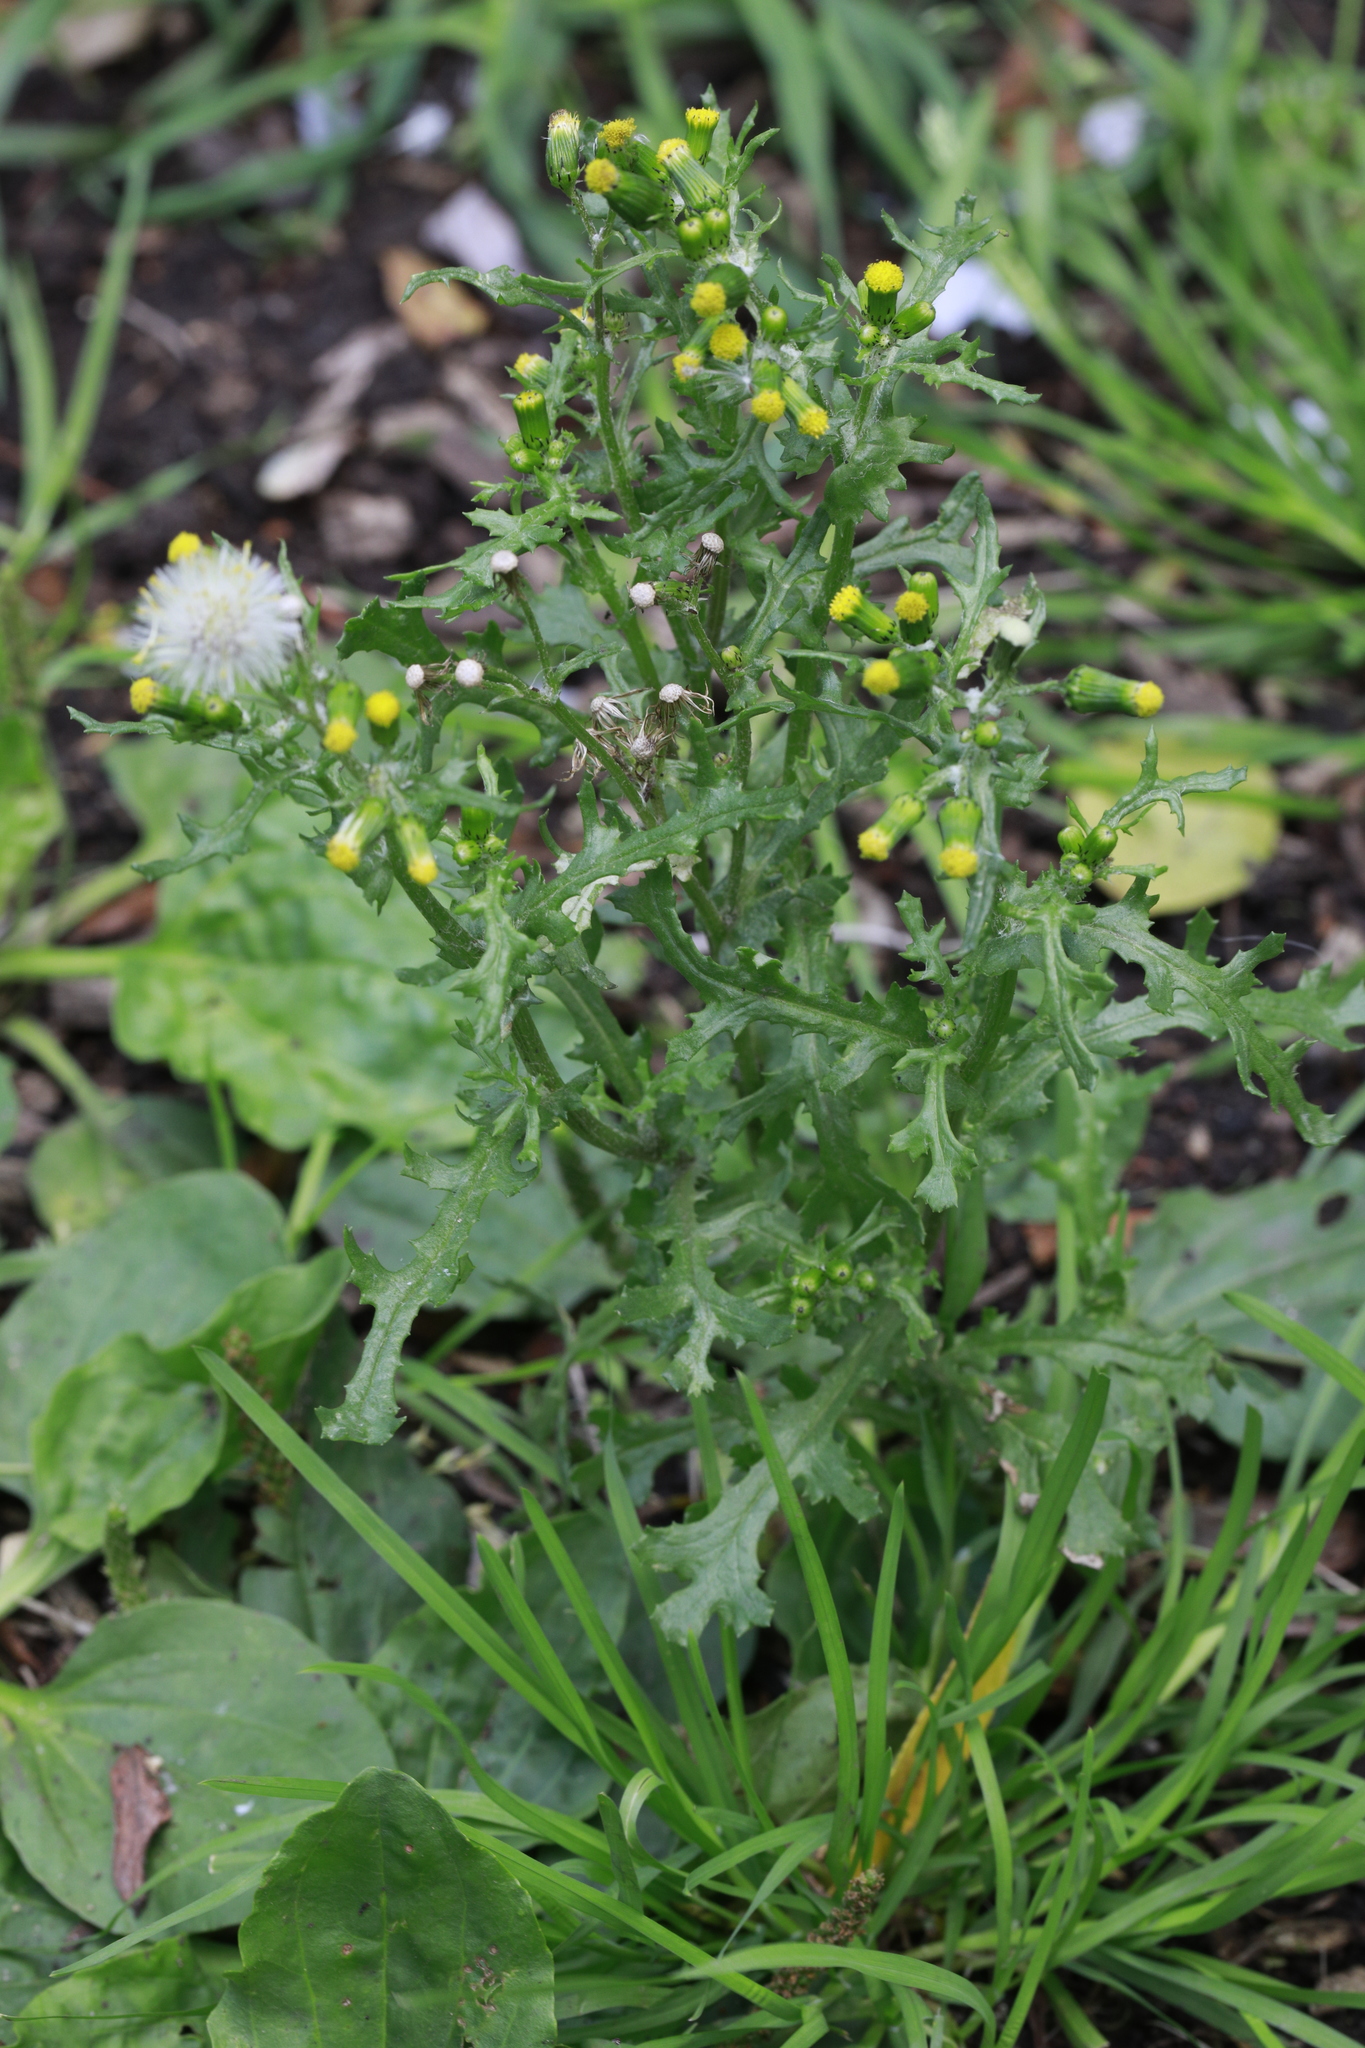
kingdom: Plantae
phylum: Tracheophyta
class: Magnoliopsida
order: Asterales
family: Asteraceae
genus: Senecio
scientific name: Senecio vulgaris
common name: Old-man-in-the-spring
